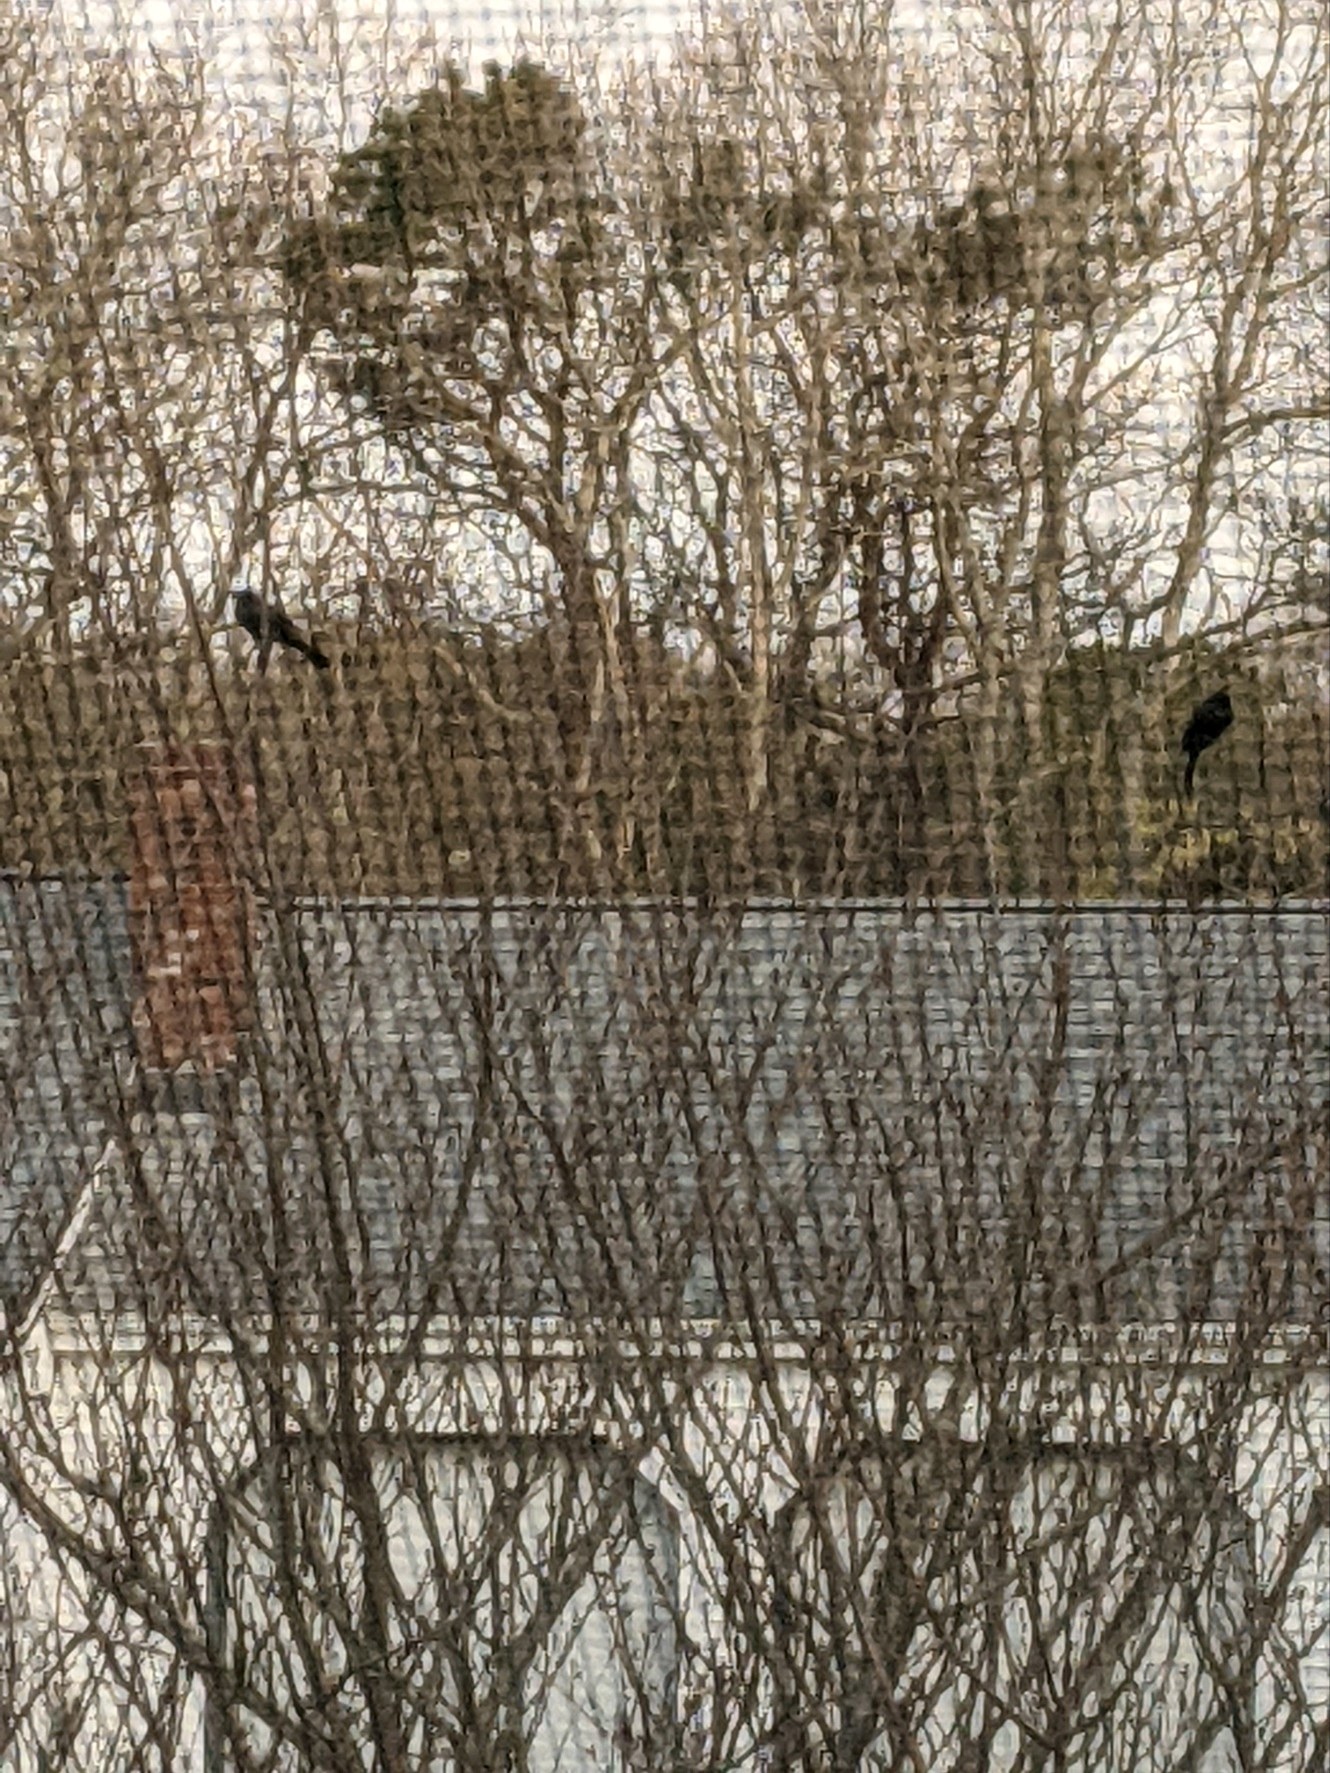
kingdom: Animalia
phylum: Chordata
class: Aves
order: Passeriformes
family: Icteridae
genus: Quiscalus
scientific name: Quiscalus quiscula
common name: Common grackle
